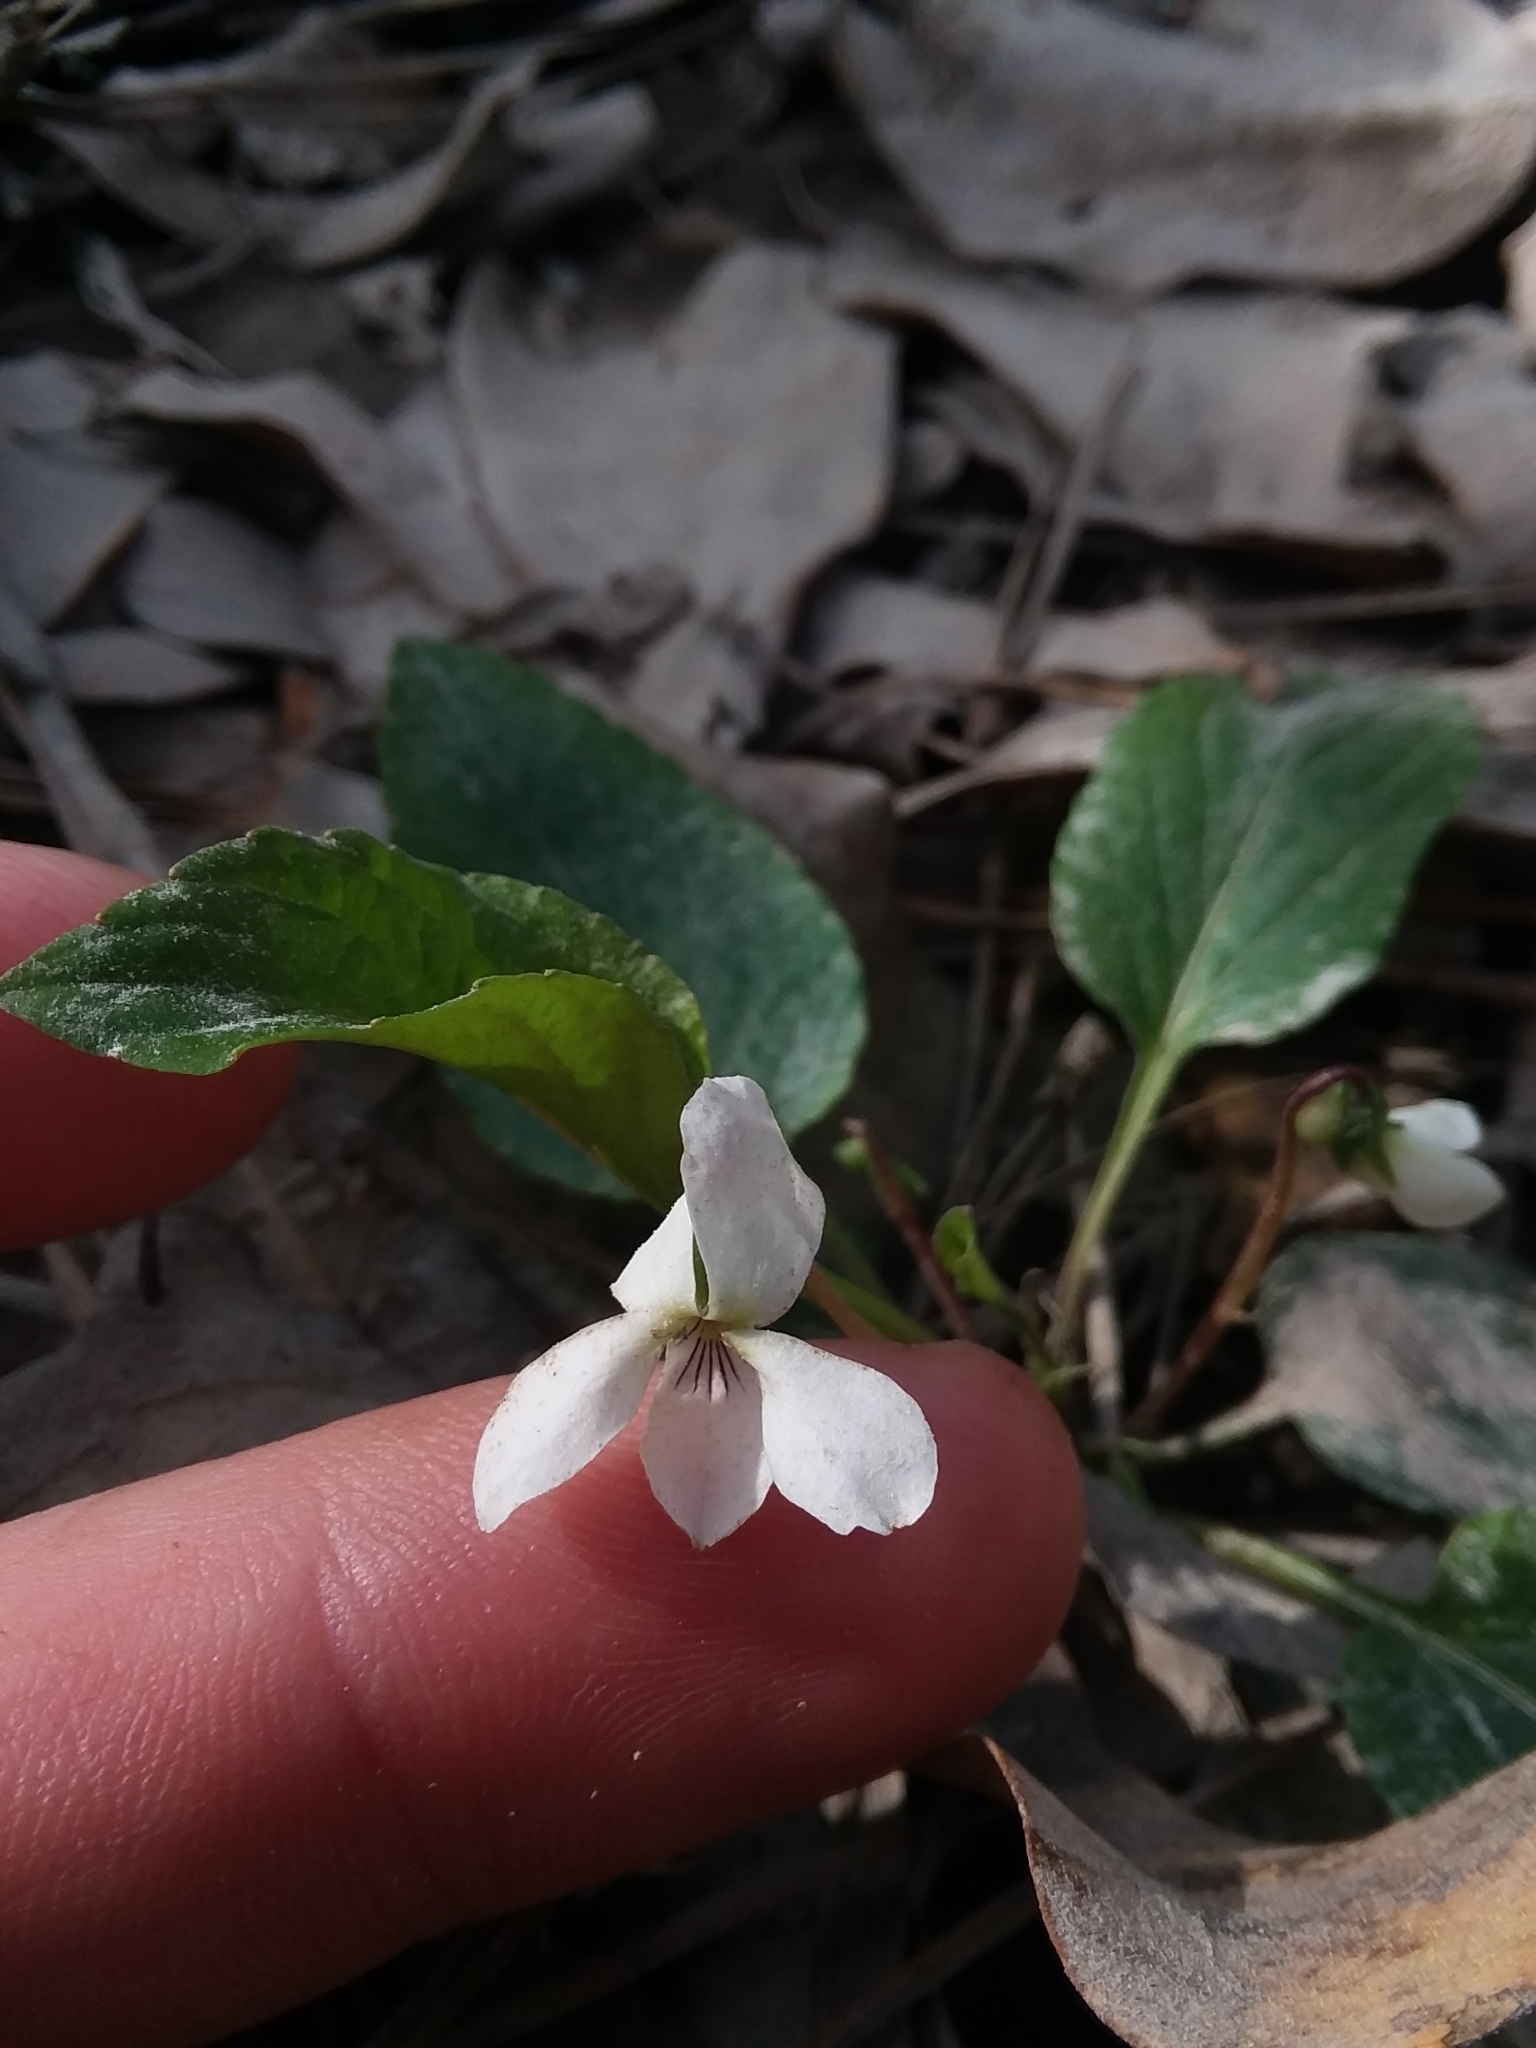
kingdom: Plantae
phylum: Tracheophyta
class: Magnoliopsida
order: Malpighiales
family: Violaceae
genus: Viola
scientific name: Viola primulifolia
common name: Primrose-leaf violet
